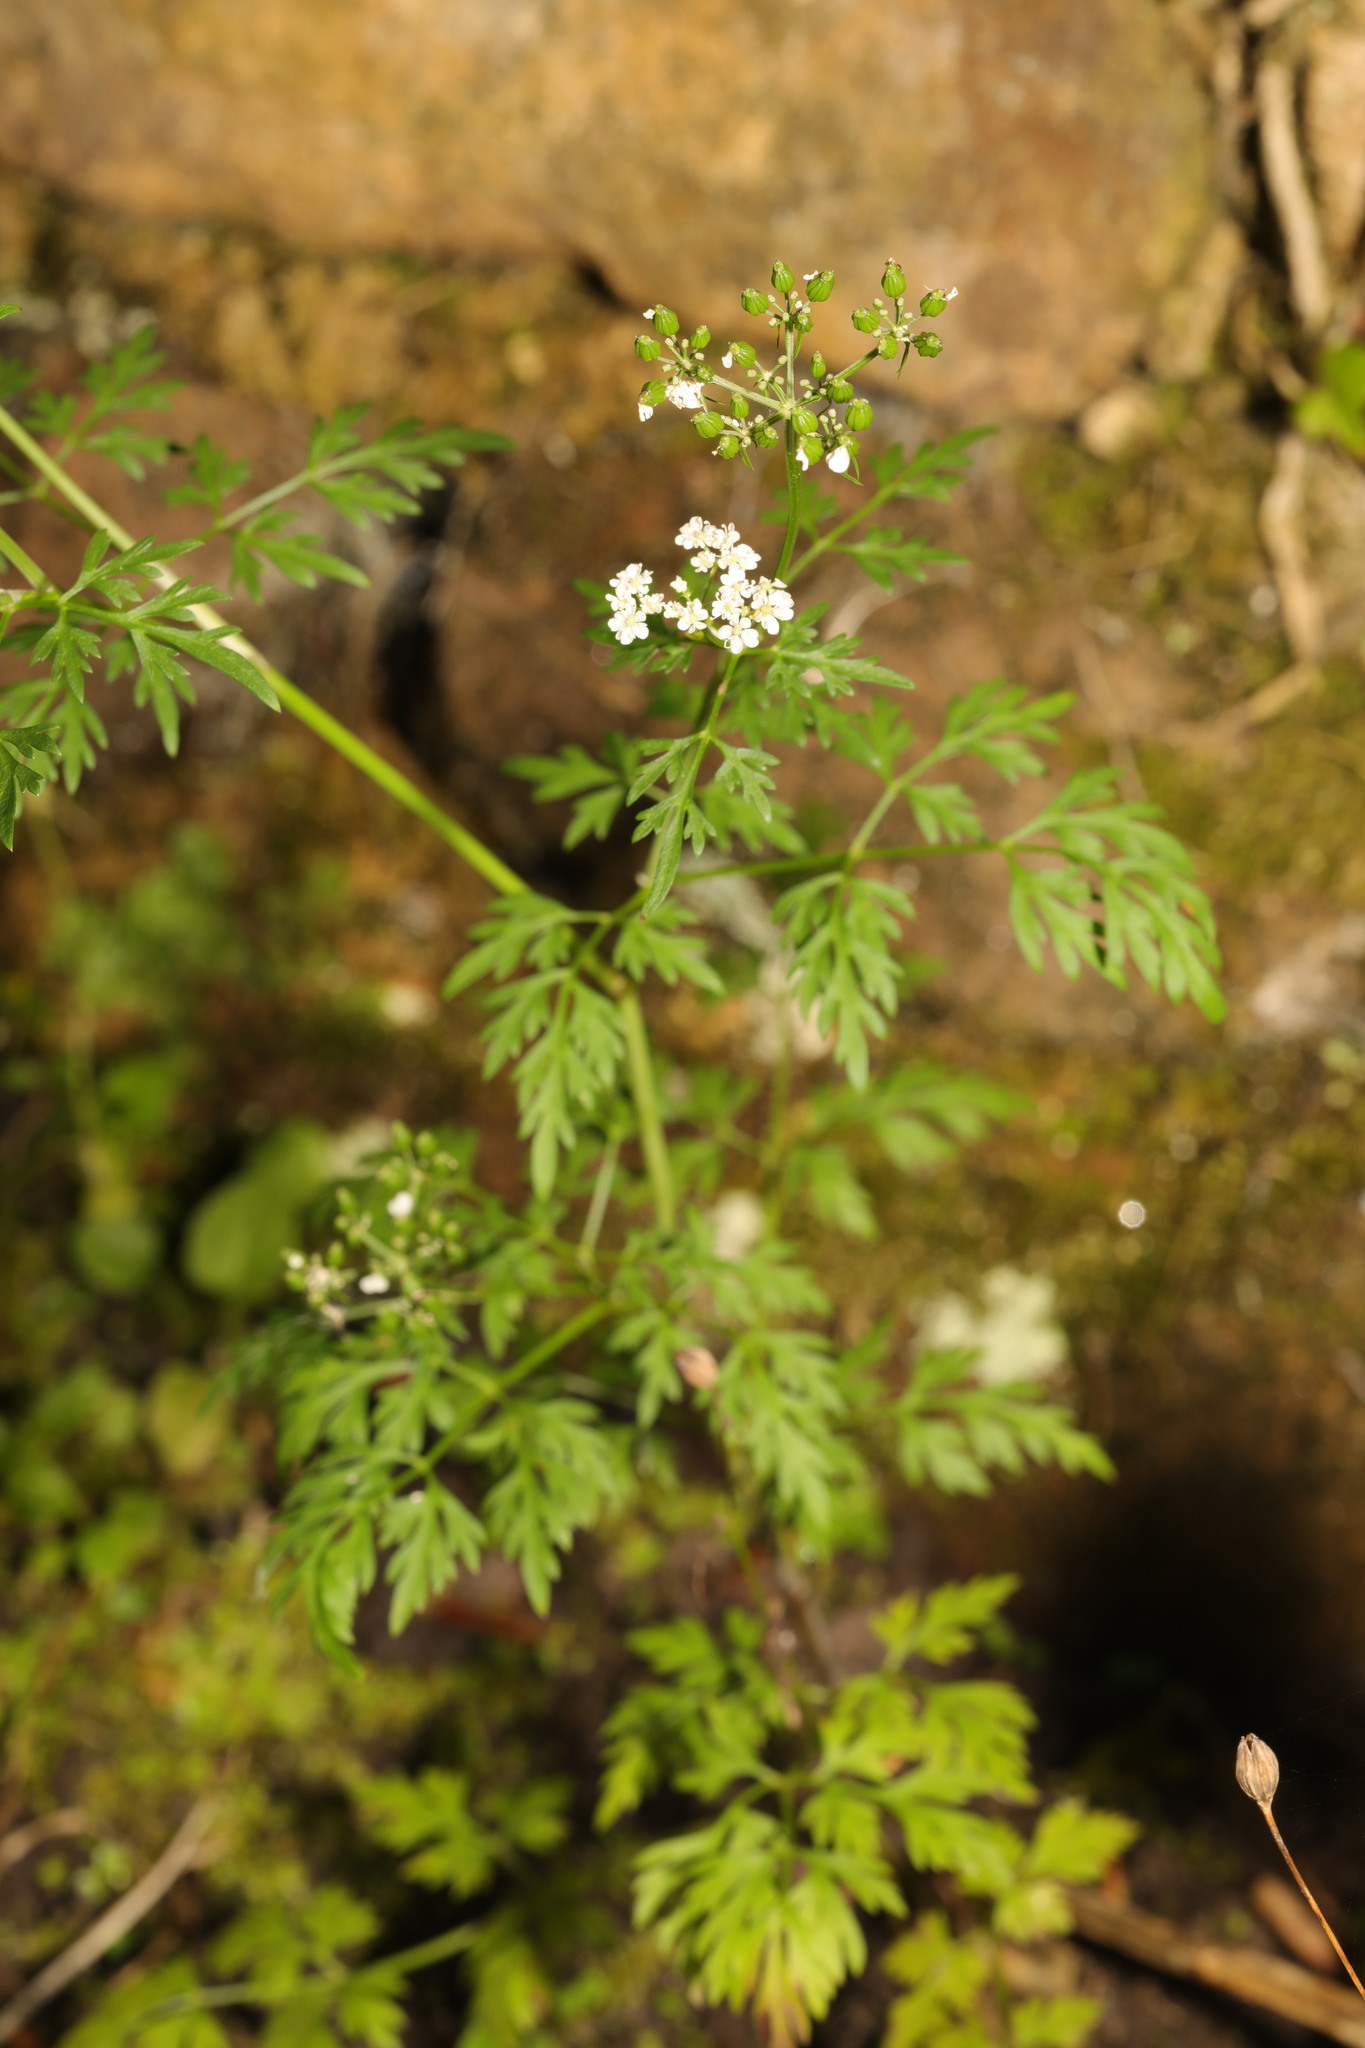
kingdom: Plantae
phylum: Tracheophyta
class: Magnoliopsida
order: Apiales
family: Apiaceae
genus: Aethusa
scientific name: Aethusa cynapium
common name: Fool's parsley
